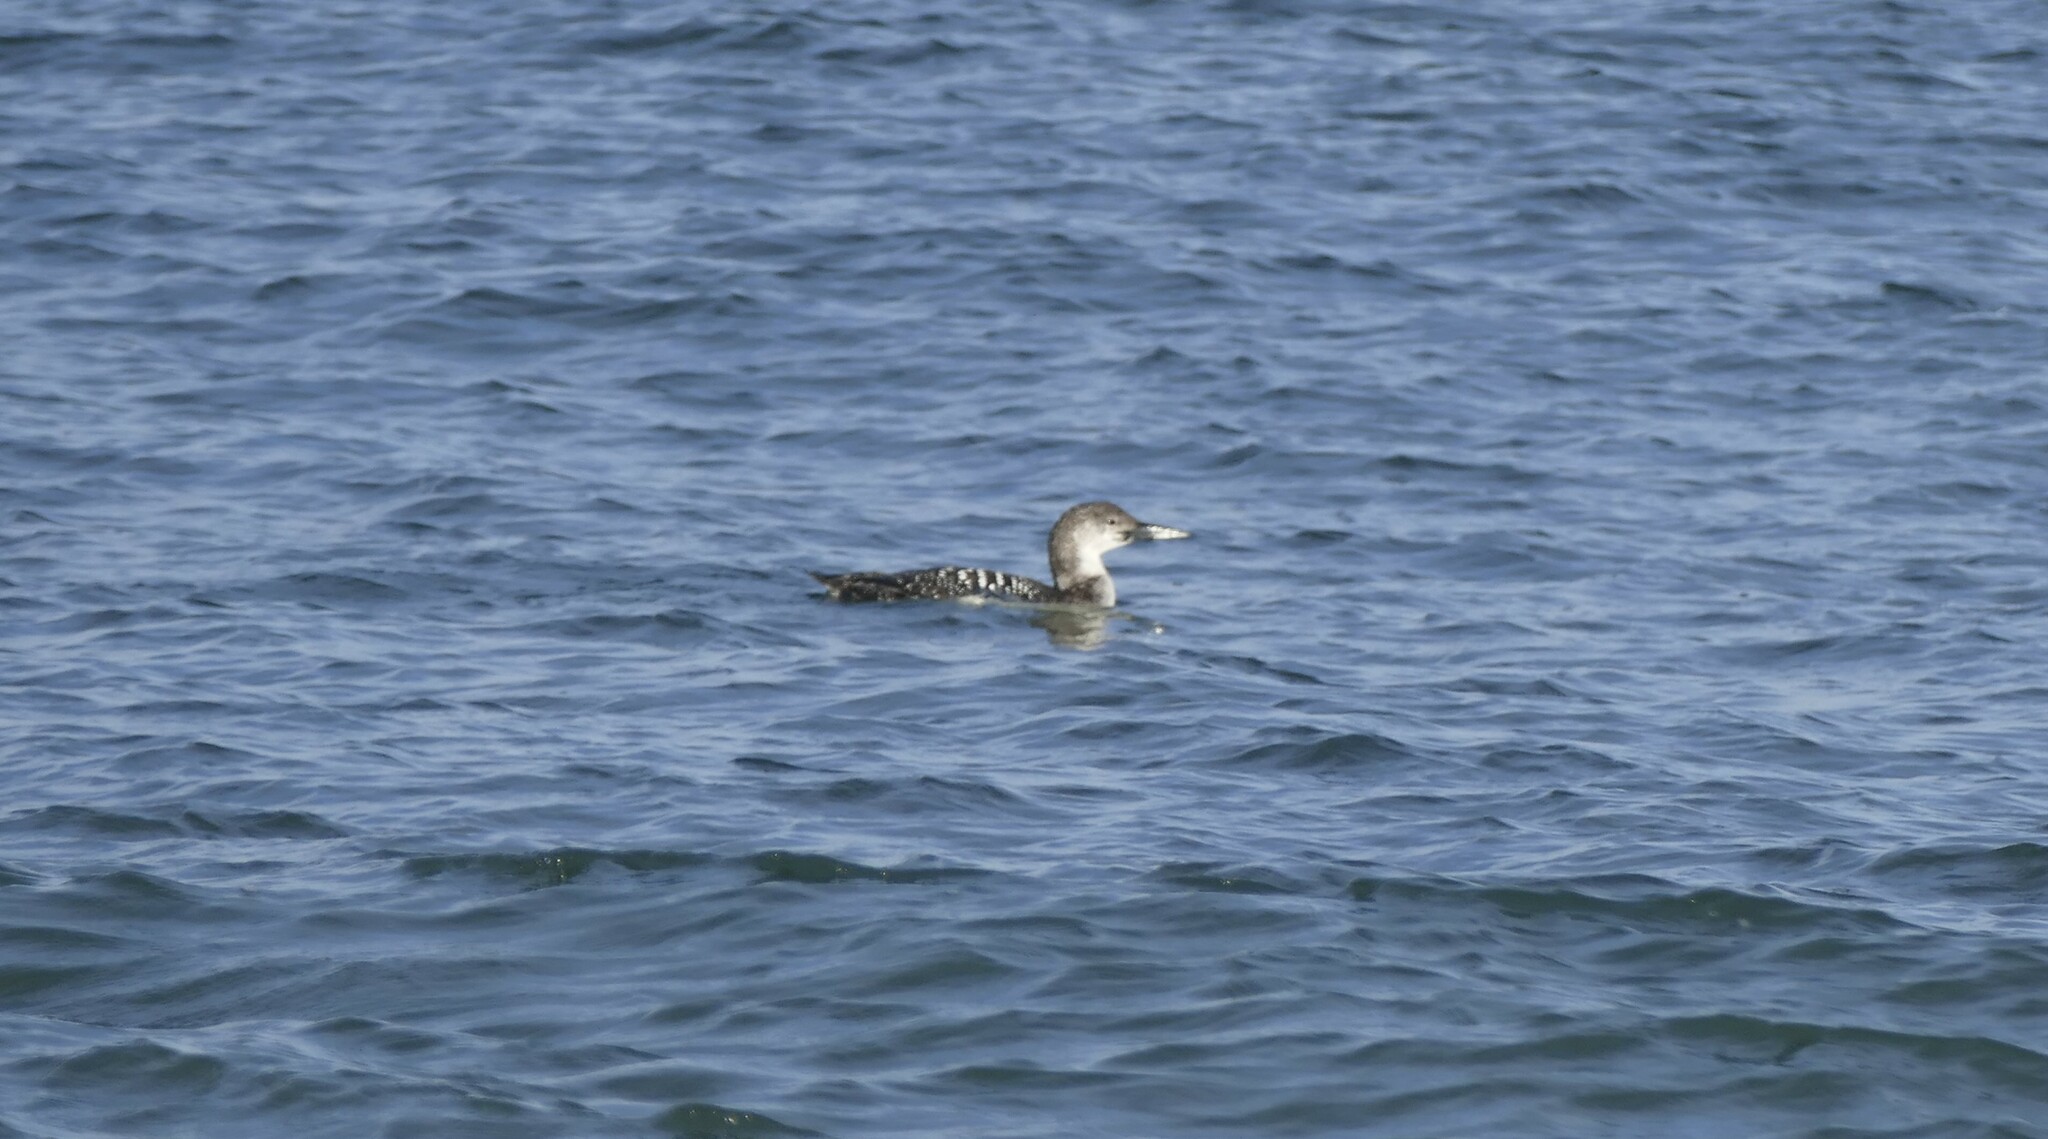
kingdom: Animalia
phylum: Chordata
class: Aves
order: Gaviiformes
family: Gaviidae
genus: Gavia
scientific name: Gavia immer
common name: Common loon
